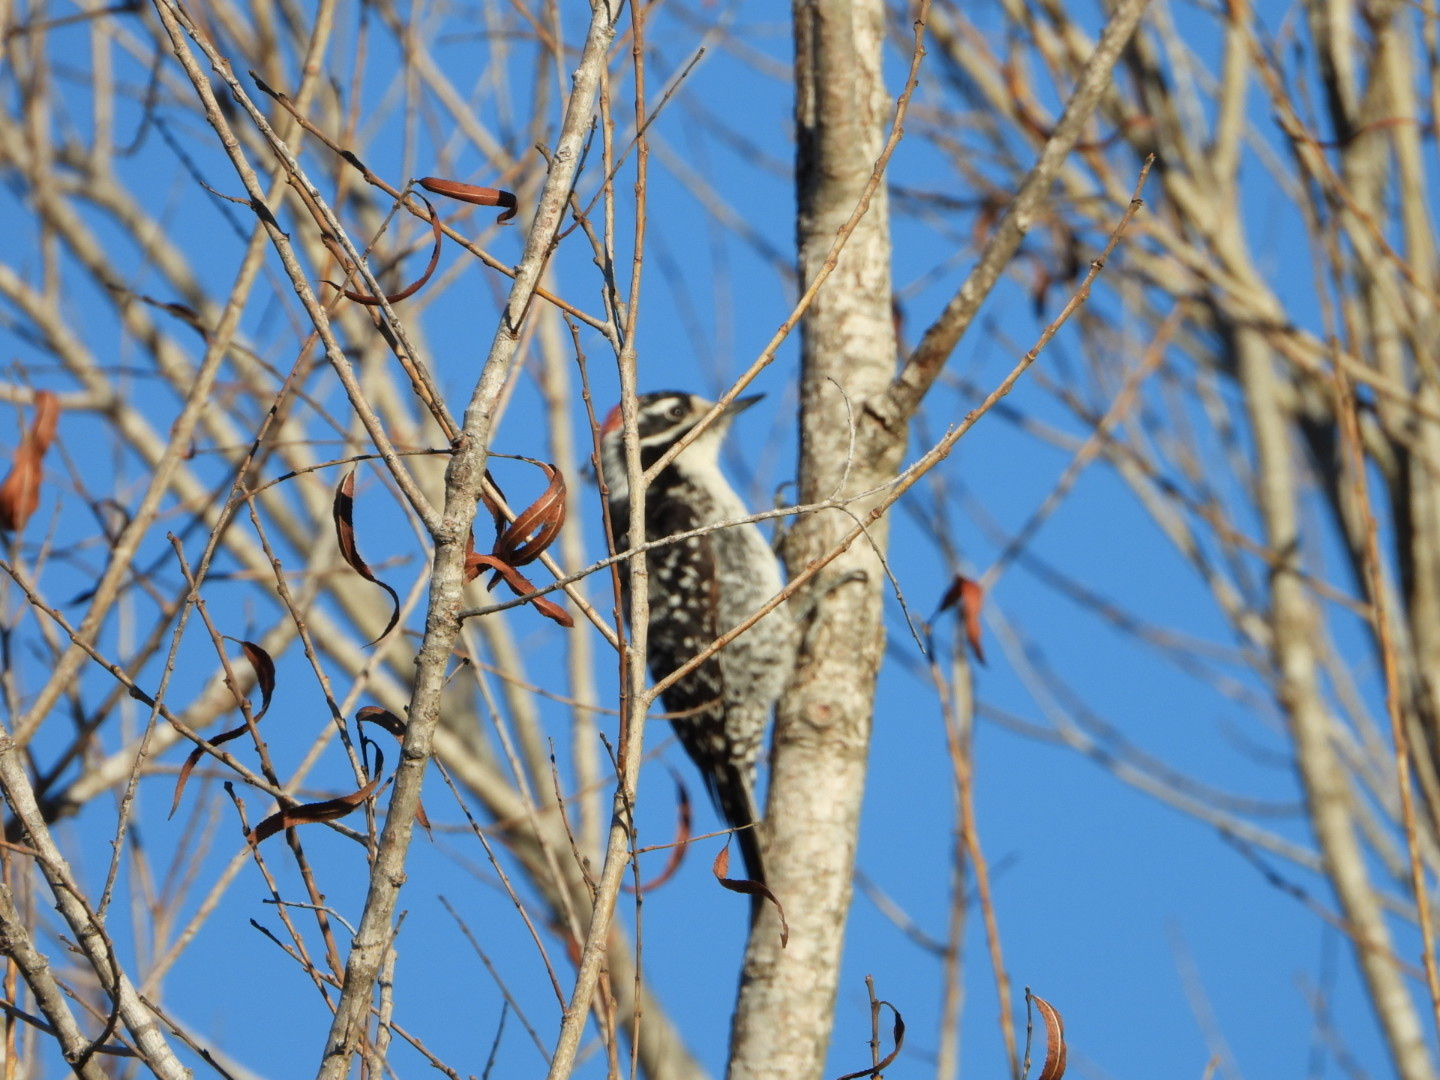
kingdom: Animalia
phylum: Chordata
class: Aves
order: Piciformes
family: Picidae
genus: Dryobates
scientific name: Dryobates nuttallii
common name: Nuttall's woodpecker
